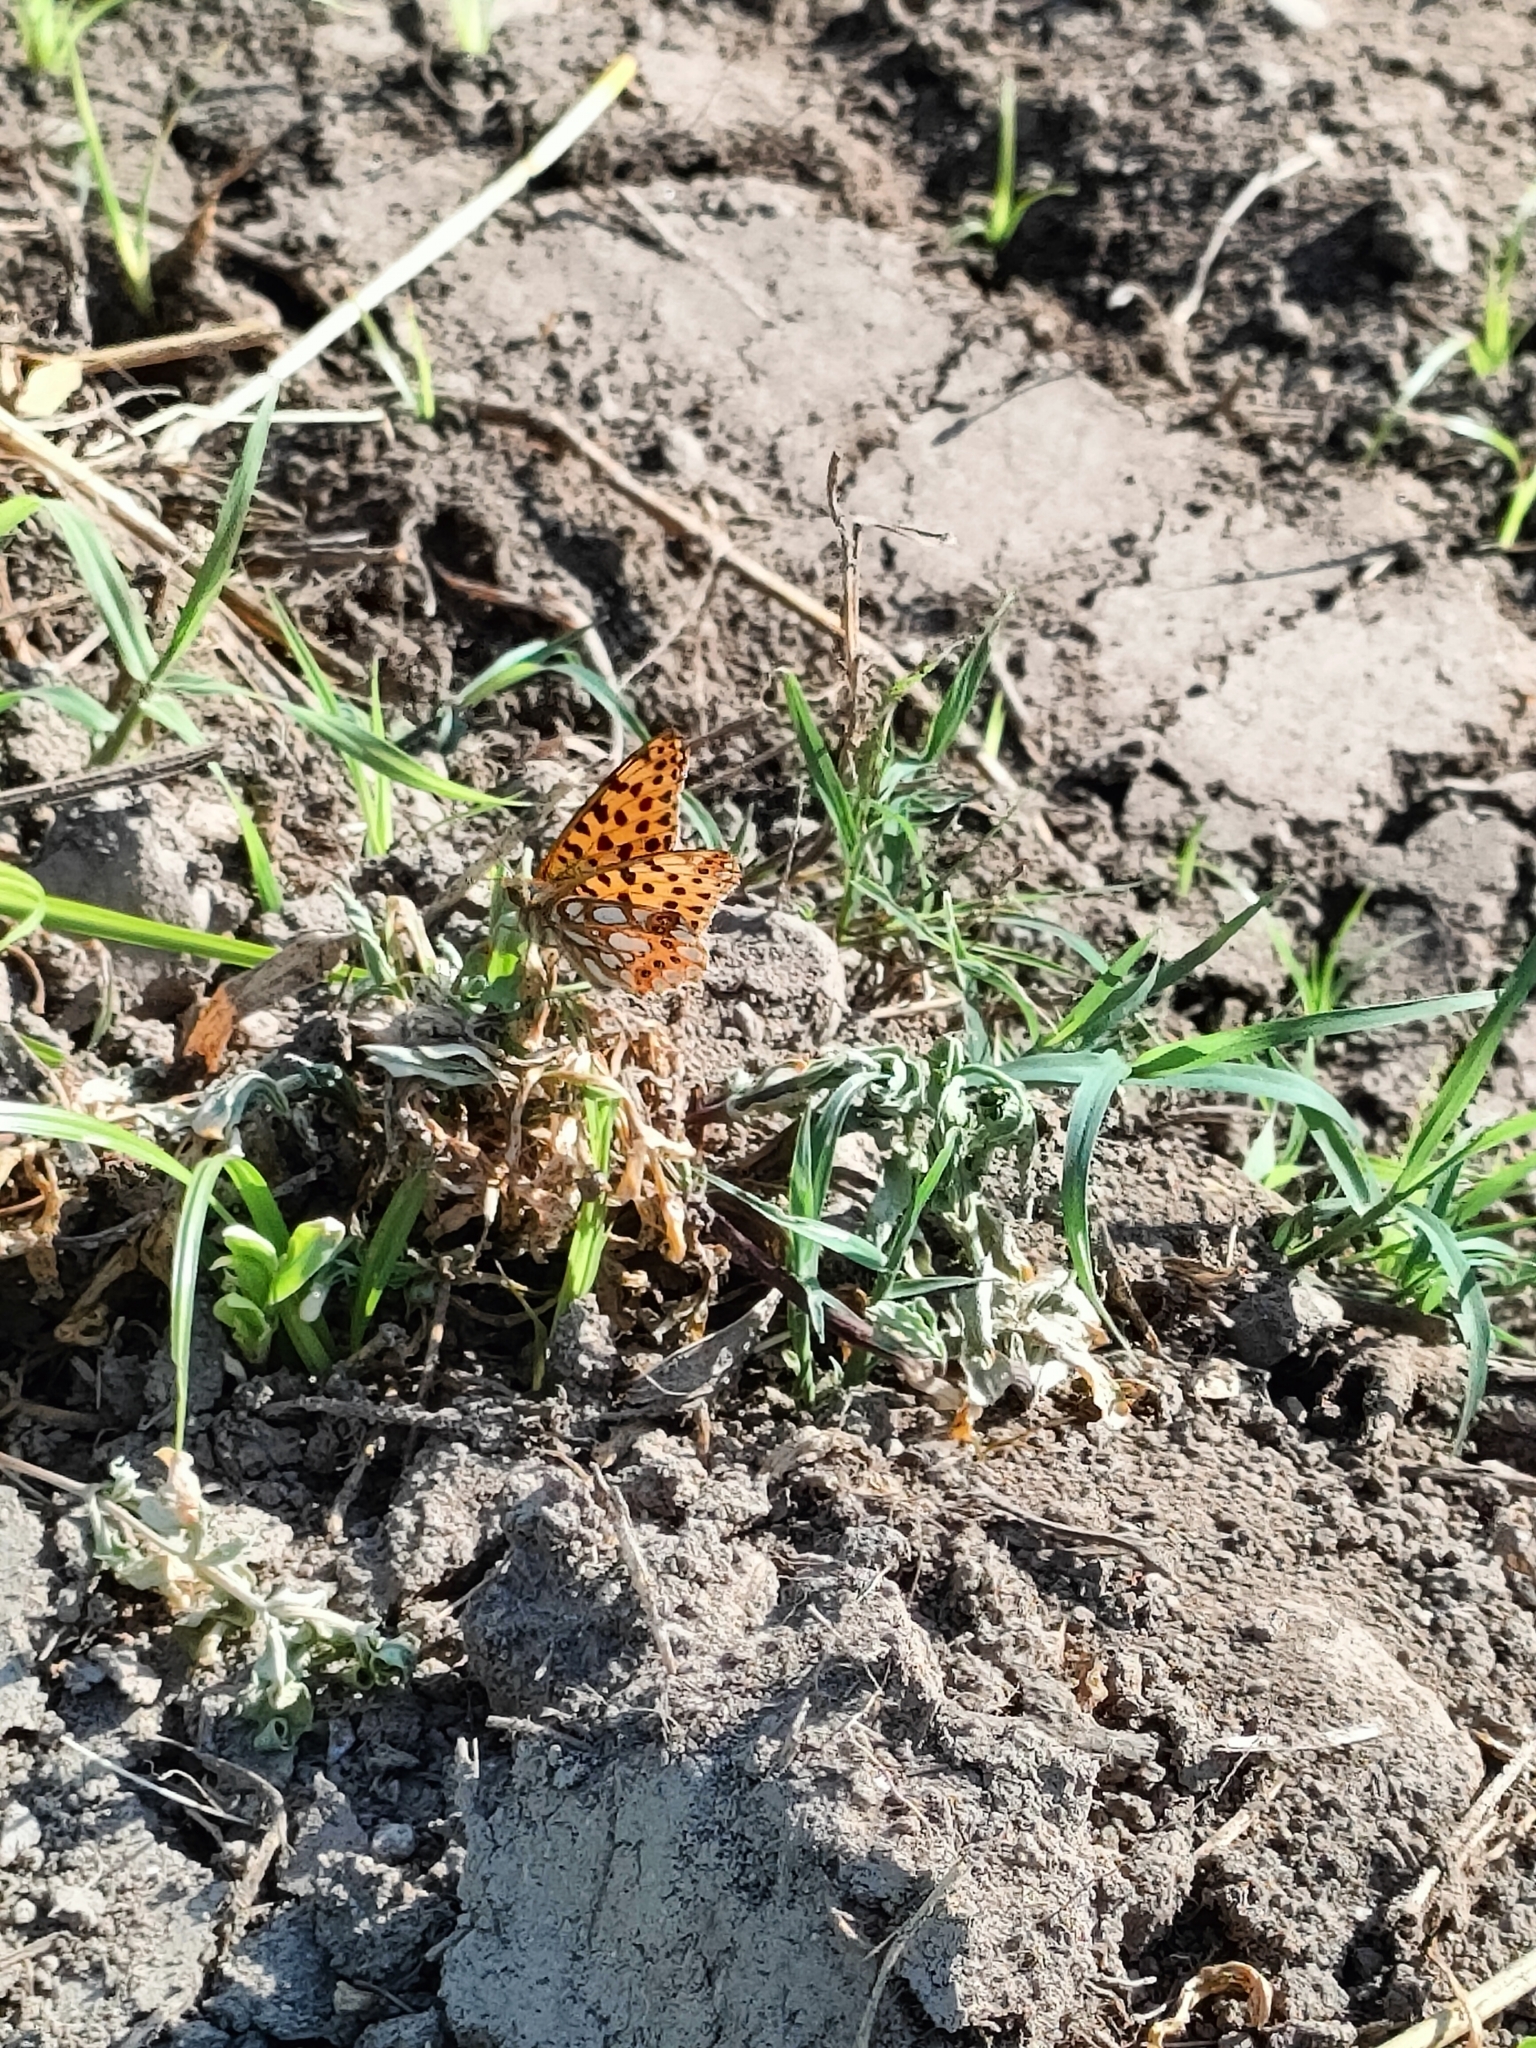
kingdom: Animalia
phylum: Arthropoda
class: Insecta
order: Lepidoptera
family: Nymphalidae
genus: Issoria
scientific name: Issoria lathonia
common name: Queen of spain fritillary
